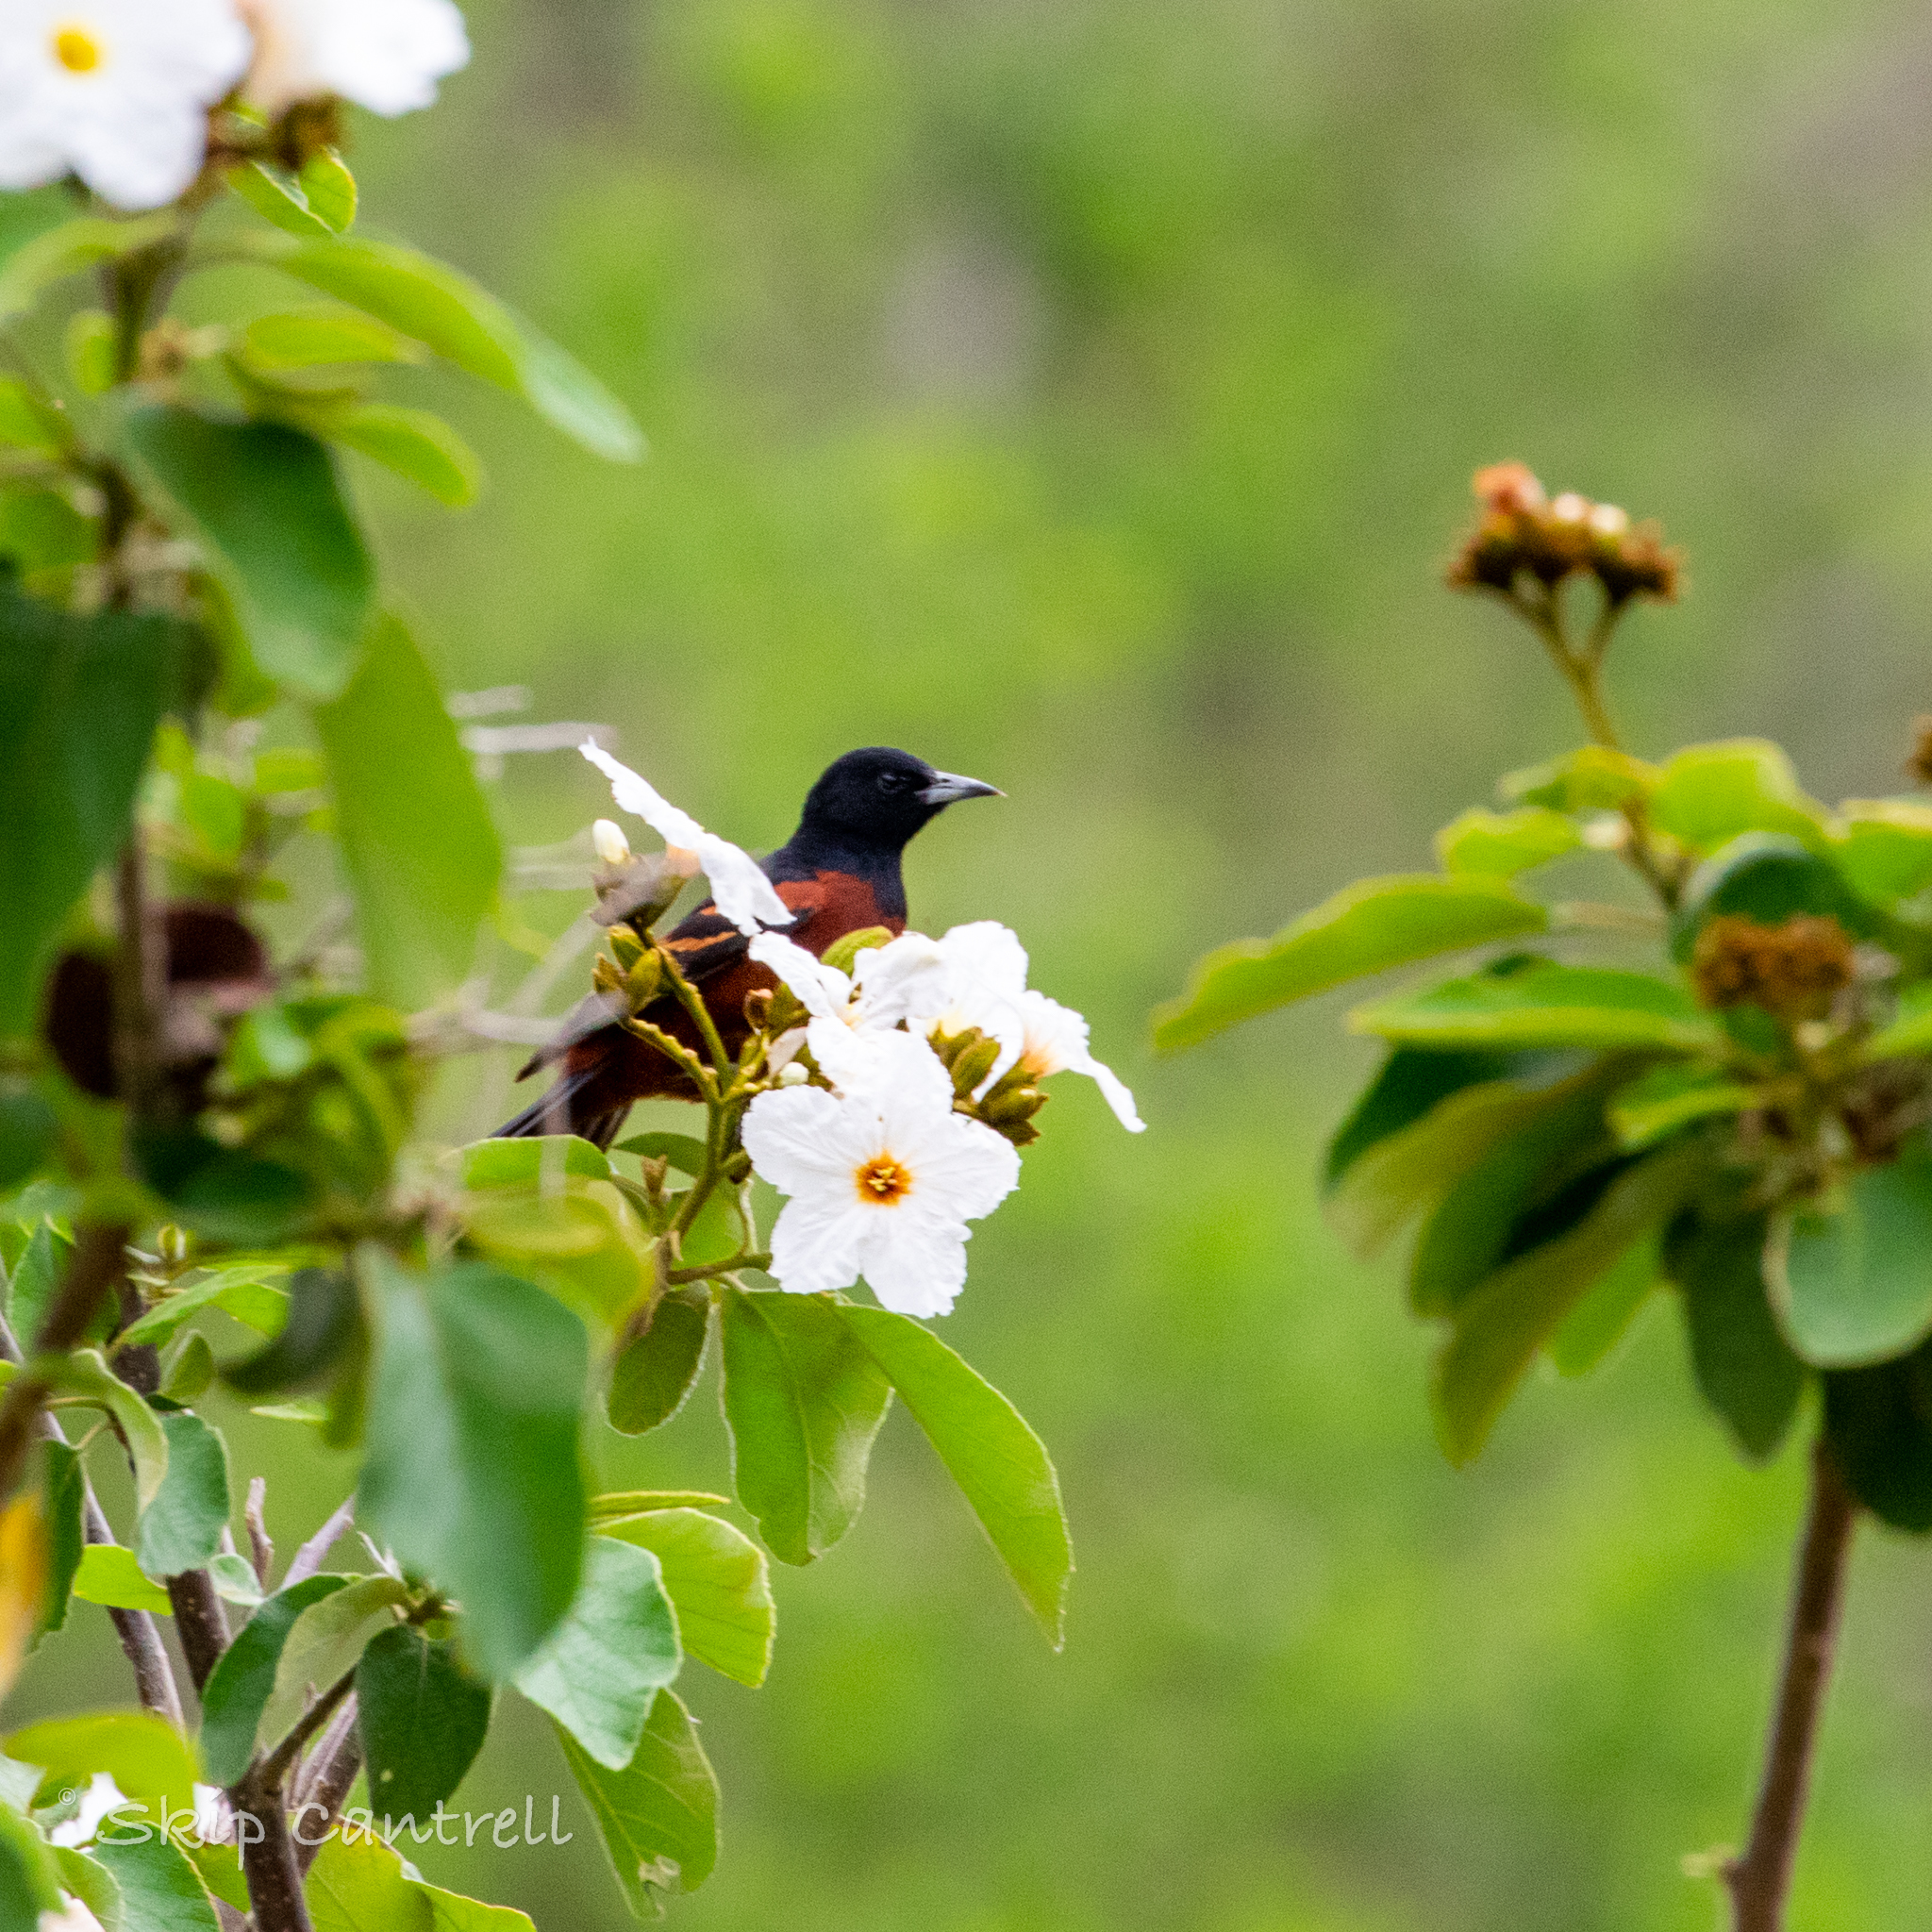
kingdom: Animalia
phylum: Chordata
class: Aves
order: Passeriformes
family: Icteridae
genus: Icterus
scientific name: Icterus spurius
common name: Orchard oriole
